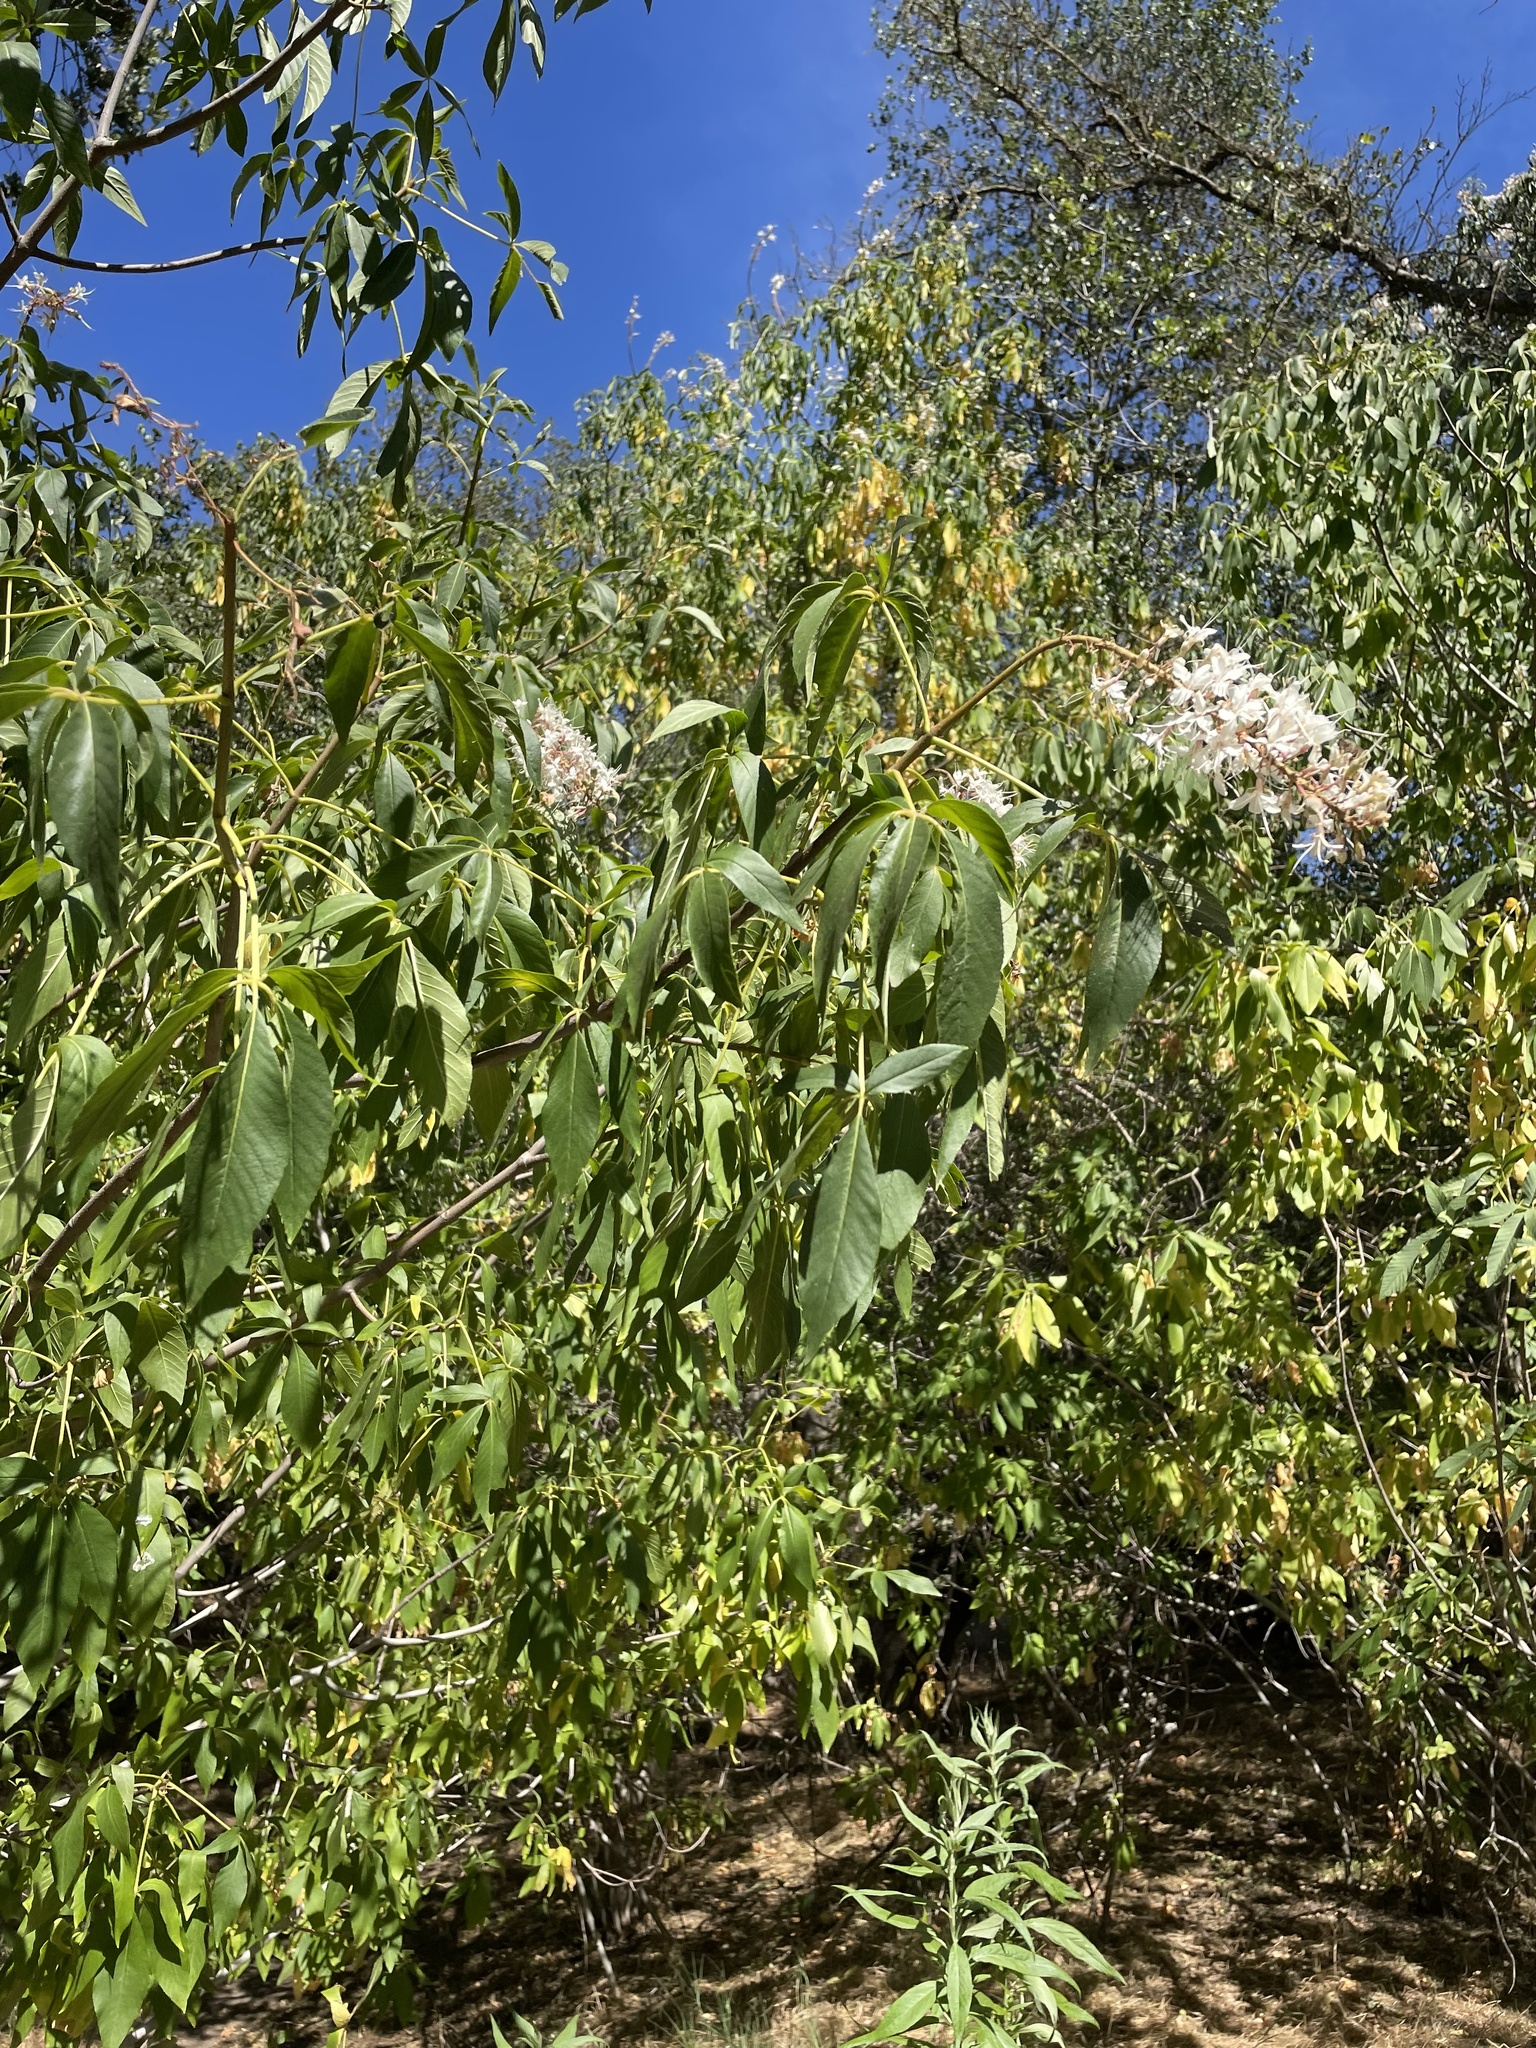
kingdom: Plantae
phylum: Tracheophyta
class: Magnoliopsida
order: Sapindales
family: Sapindaceae
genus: Aesculus
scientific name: Aesculus californica
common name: California buckeye
